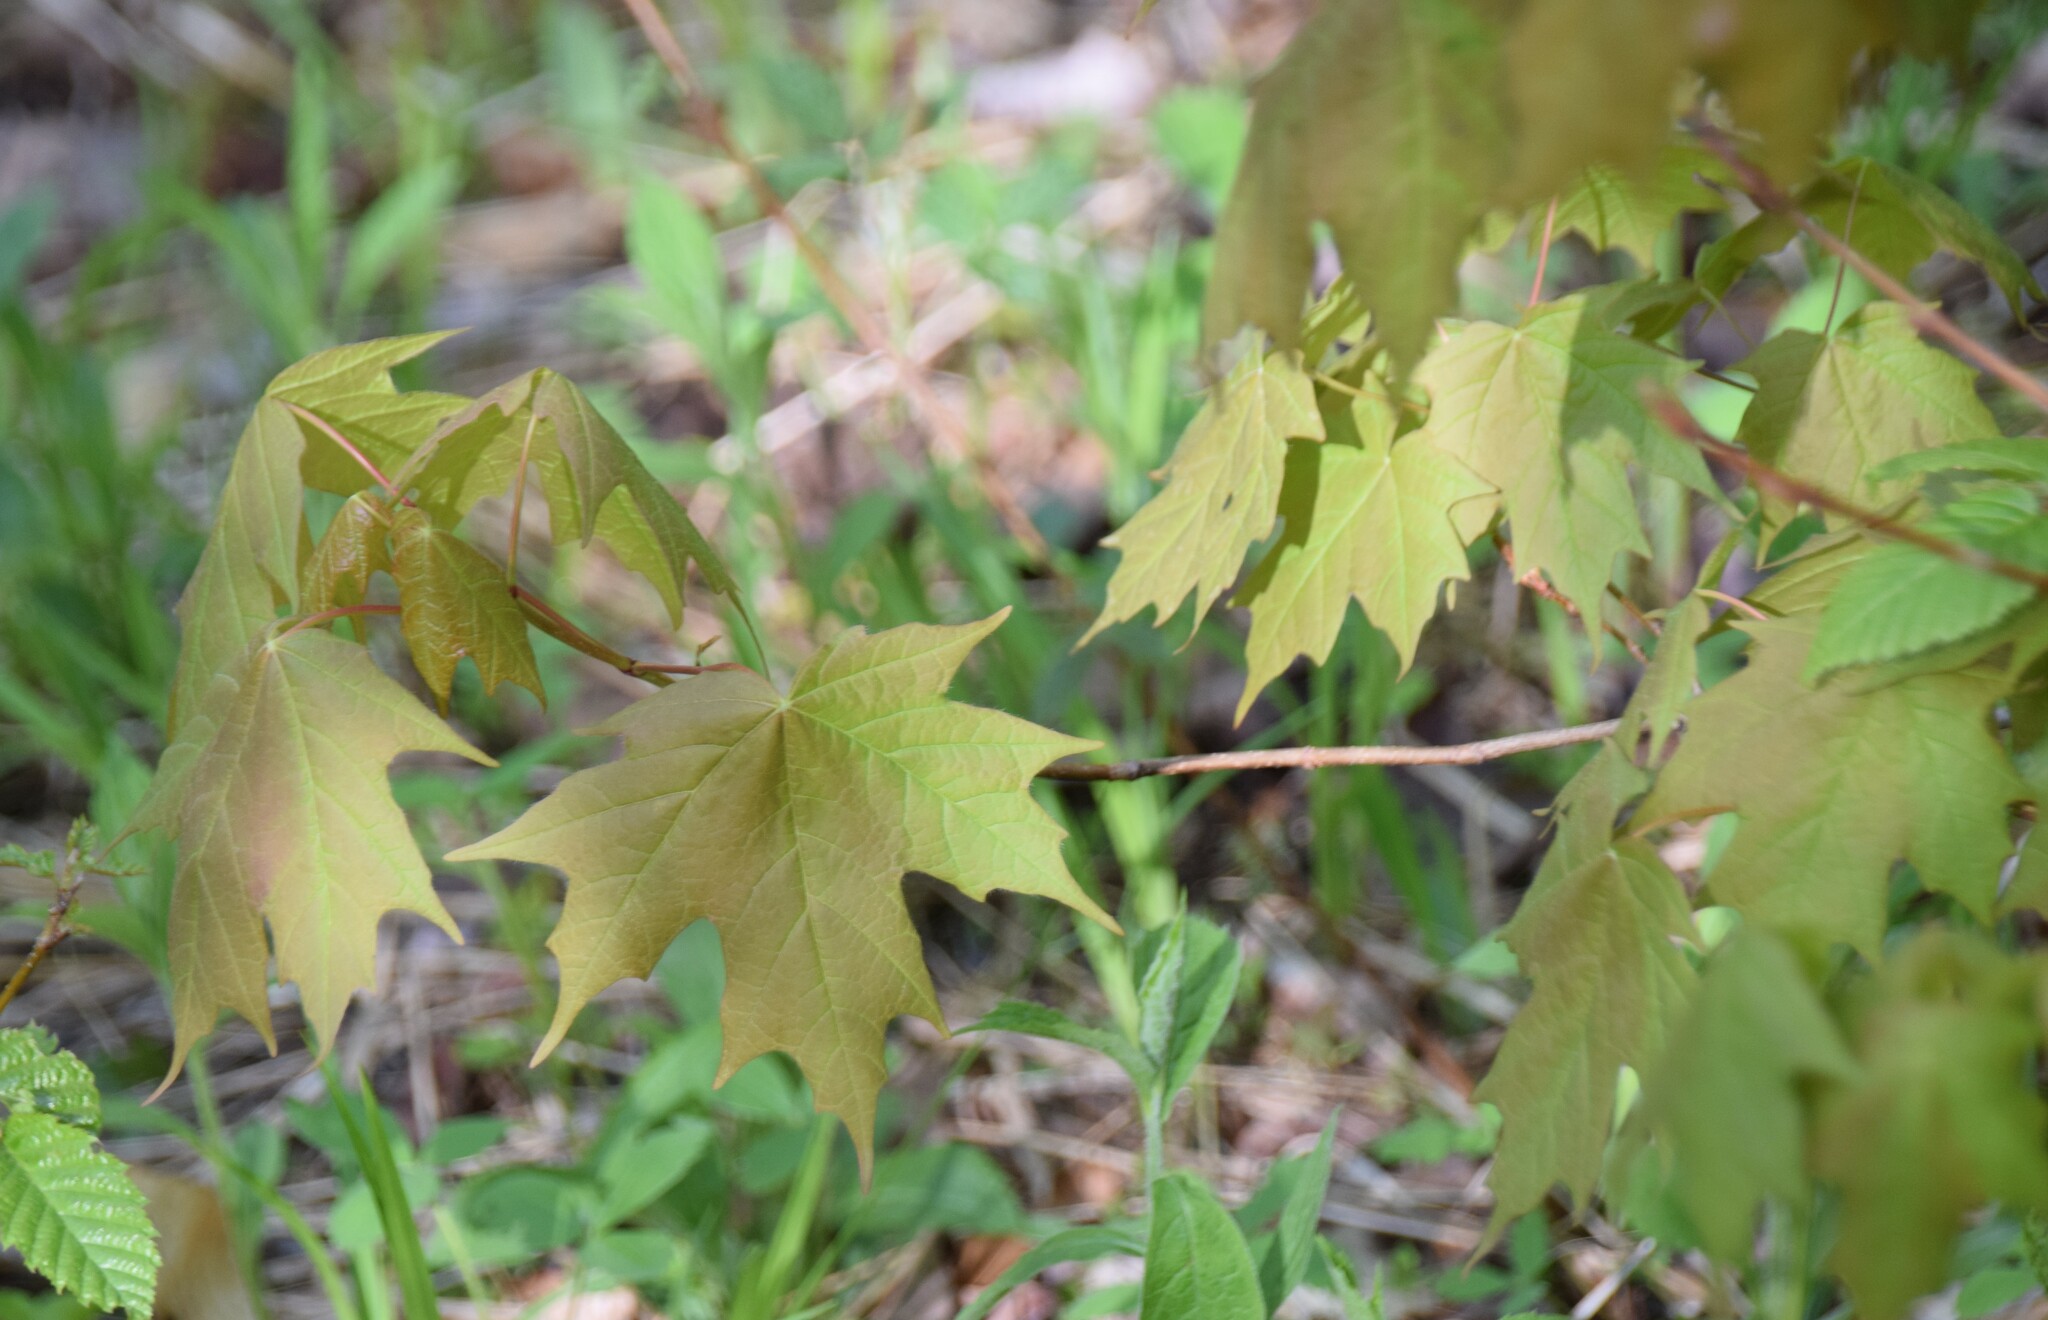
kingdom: Plantae
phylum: Tracheophyta
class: Magnoliopsida
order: Sapindales
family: Sapindaceae
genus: Acer
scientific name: Acer saccharum
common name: Sugar maple
